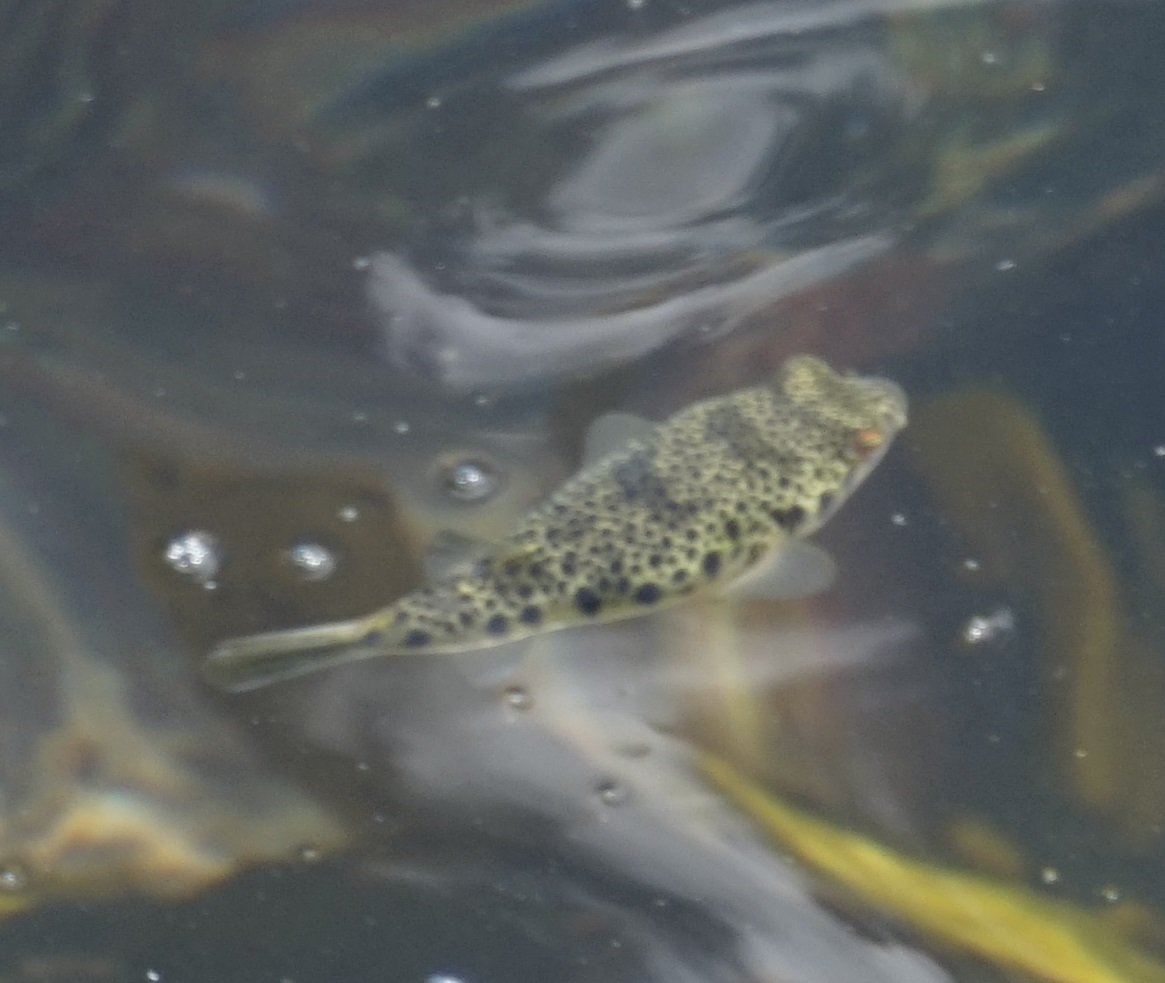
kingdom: Animalia
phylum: Chordata
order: Tetraodontiformes
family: Tetraodontidae
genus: Tetractenos
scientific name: Tetractenos hamiltoni
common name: Common toadfish
